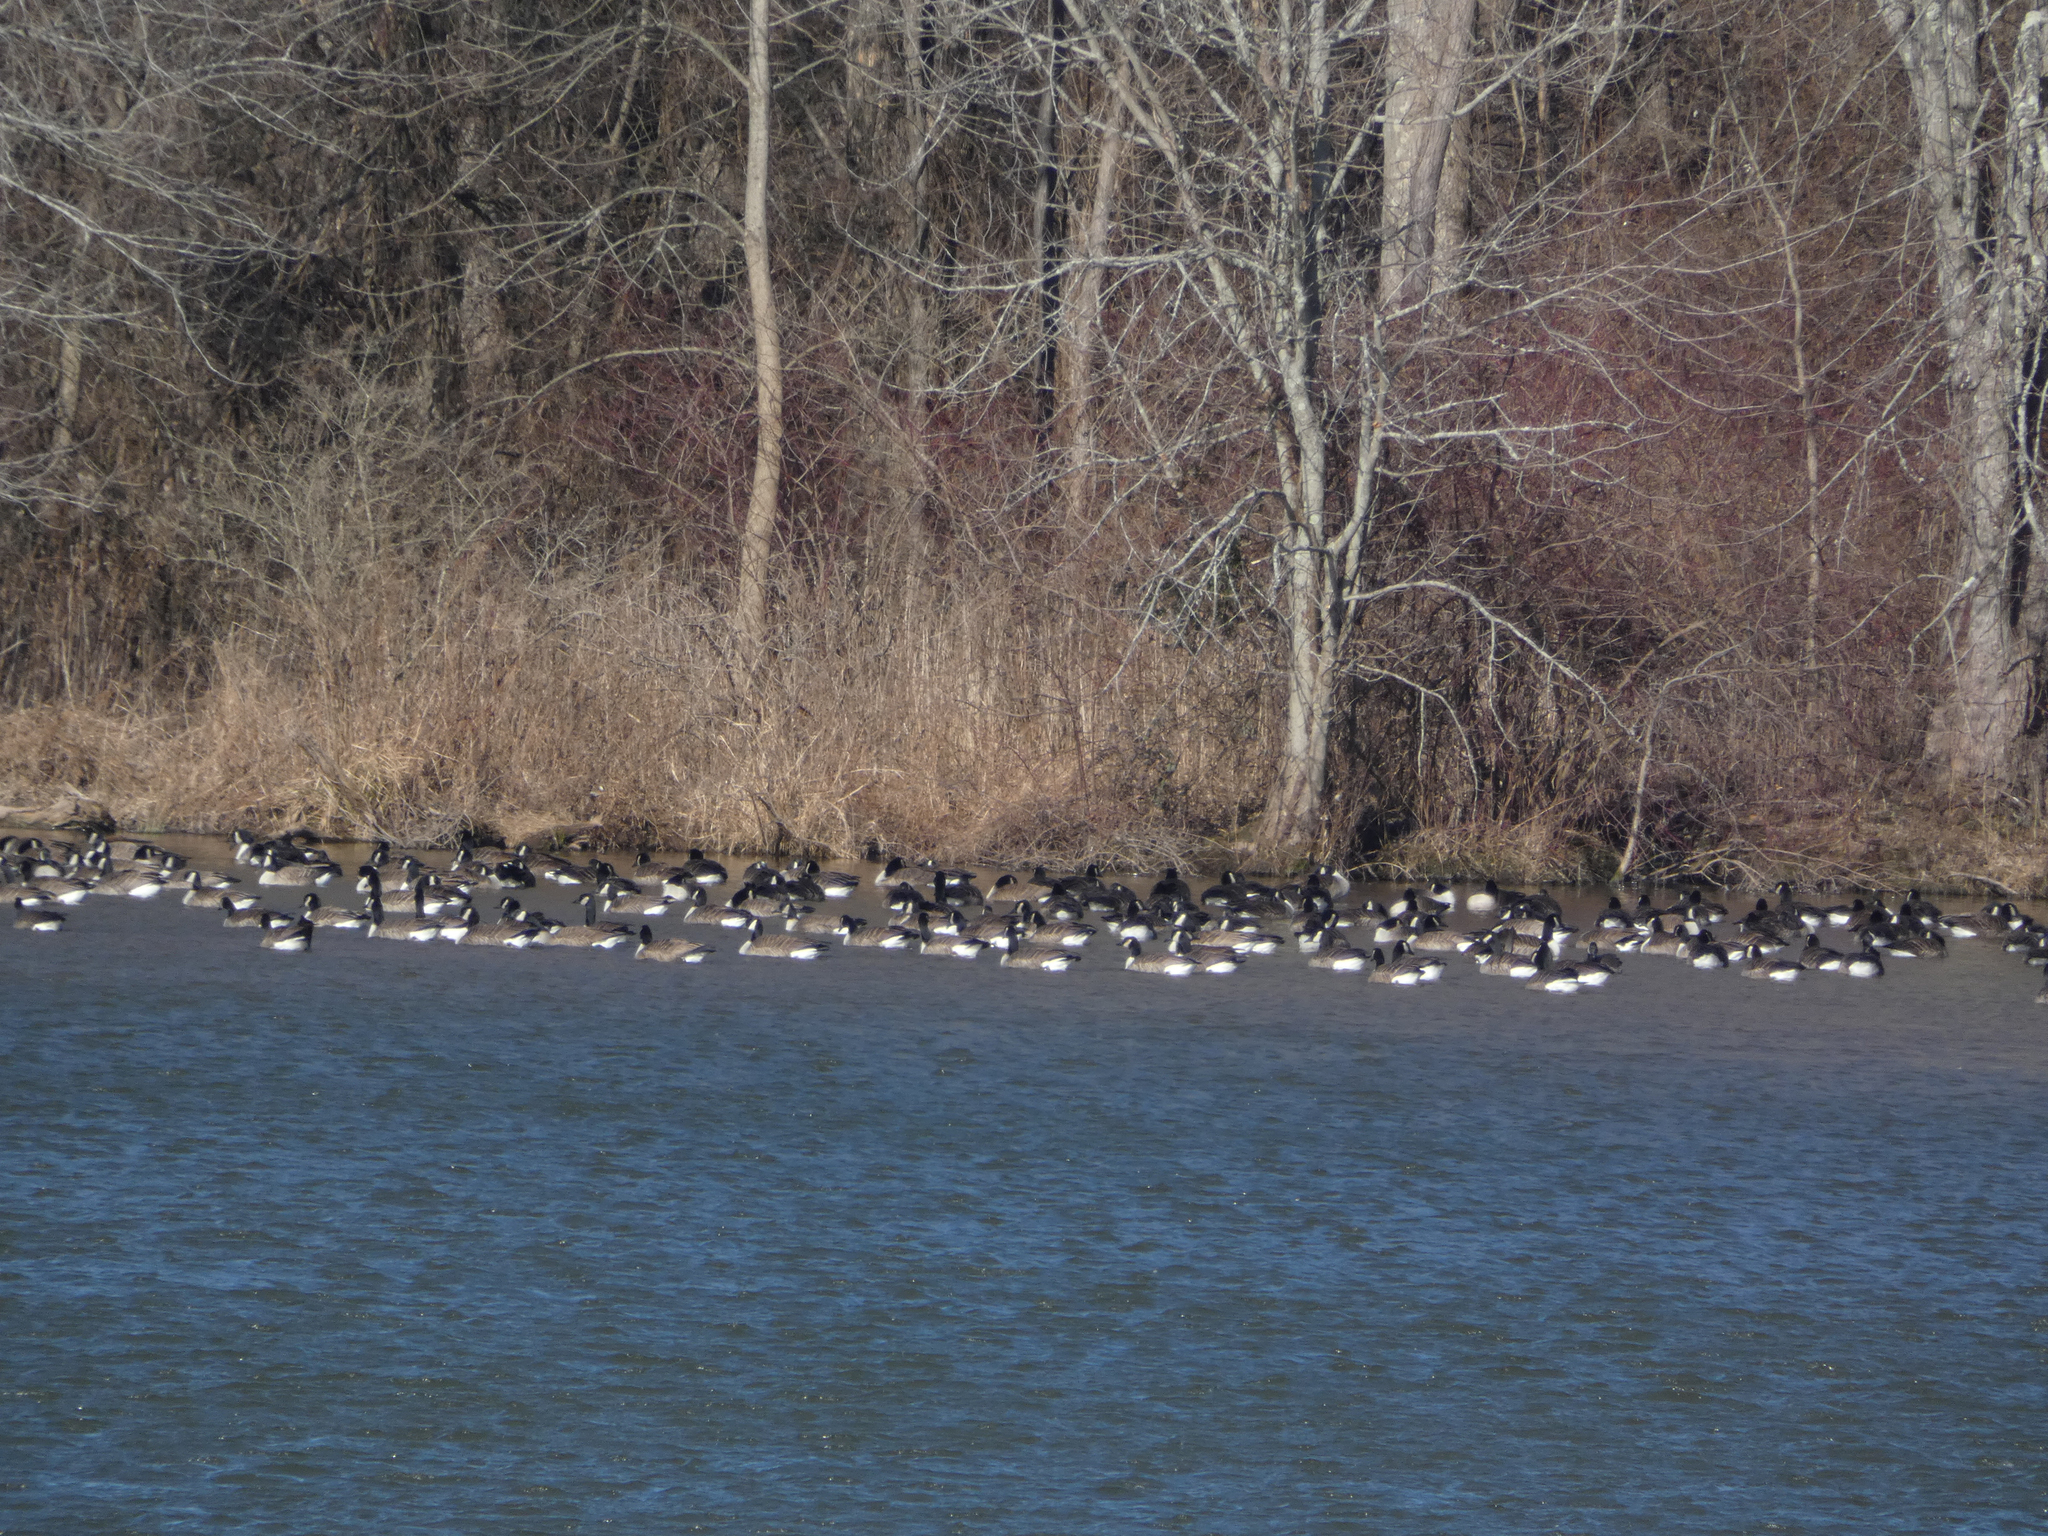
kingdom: Animalia
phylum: Chordata
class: Aves
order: Anseriformes
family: Anatidae
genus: Branta
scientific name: Branta canadensis
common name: Canada goose
